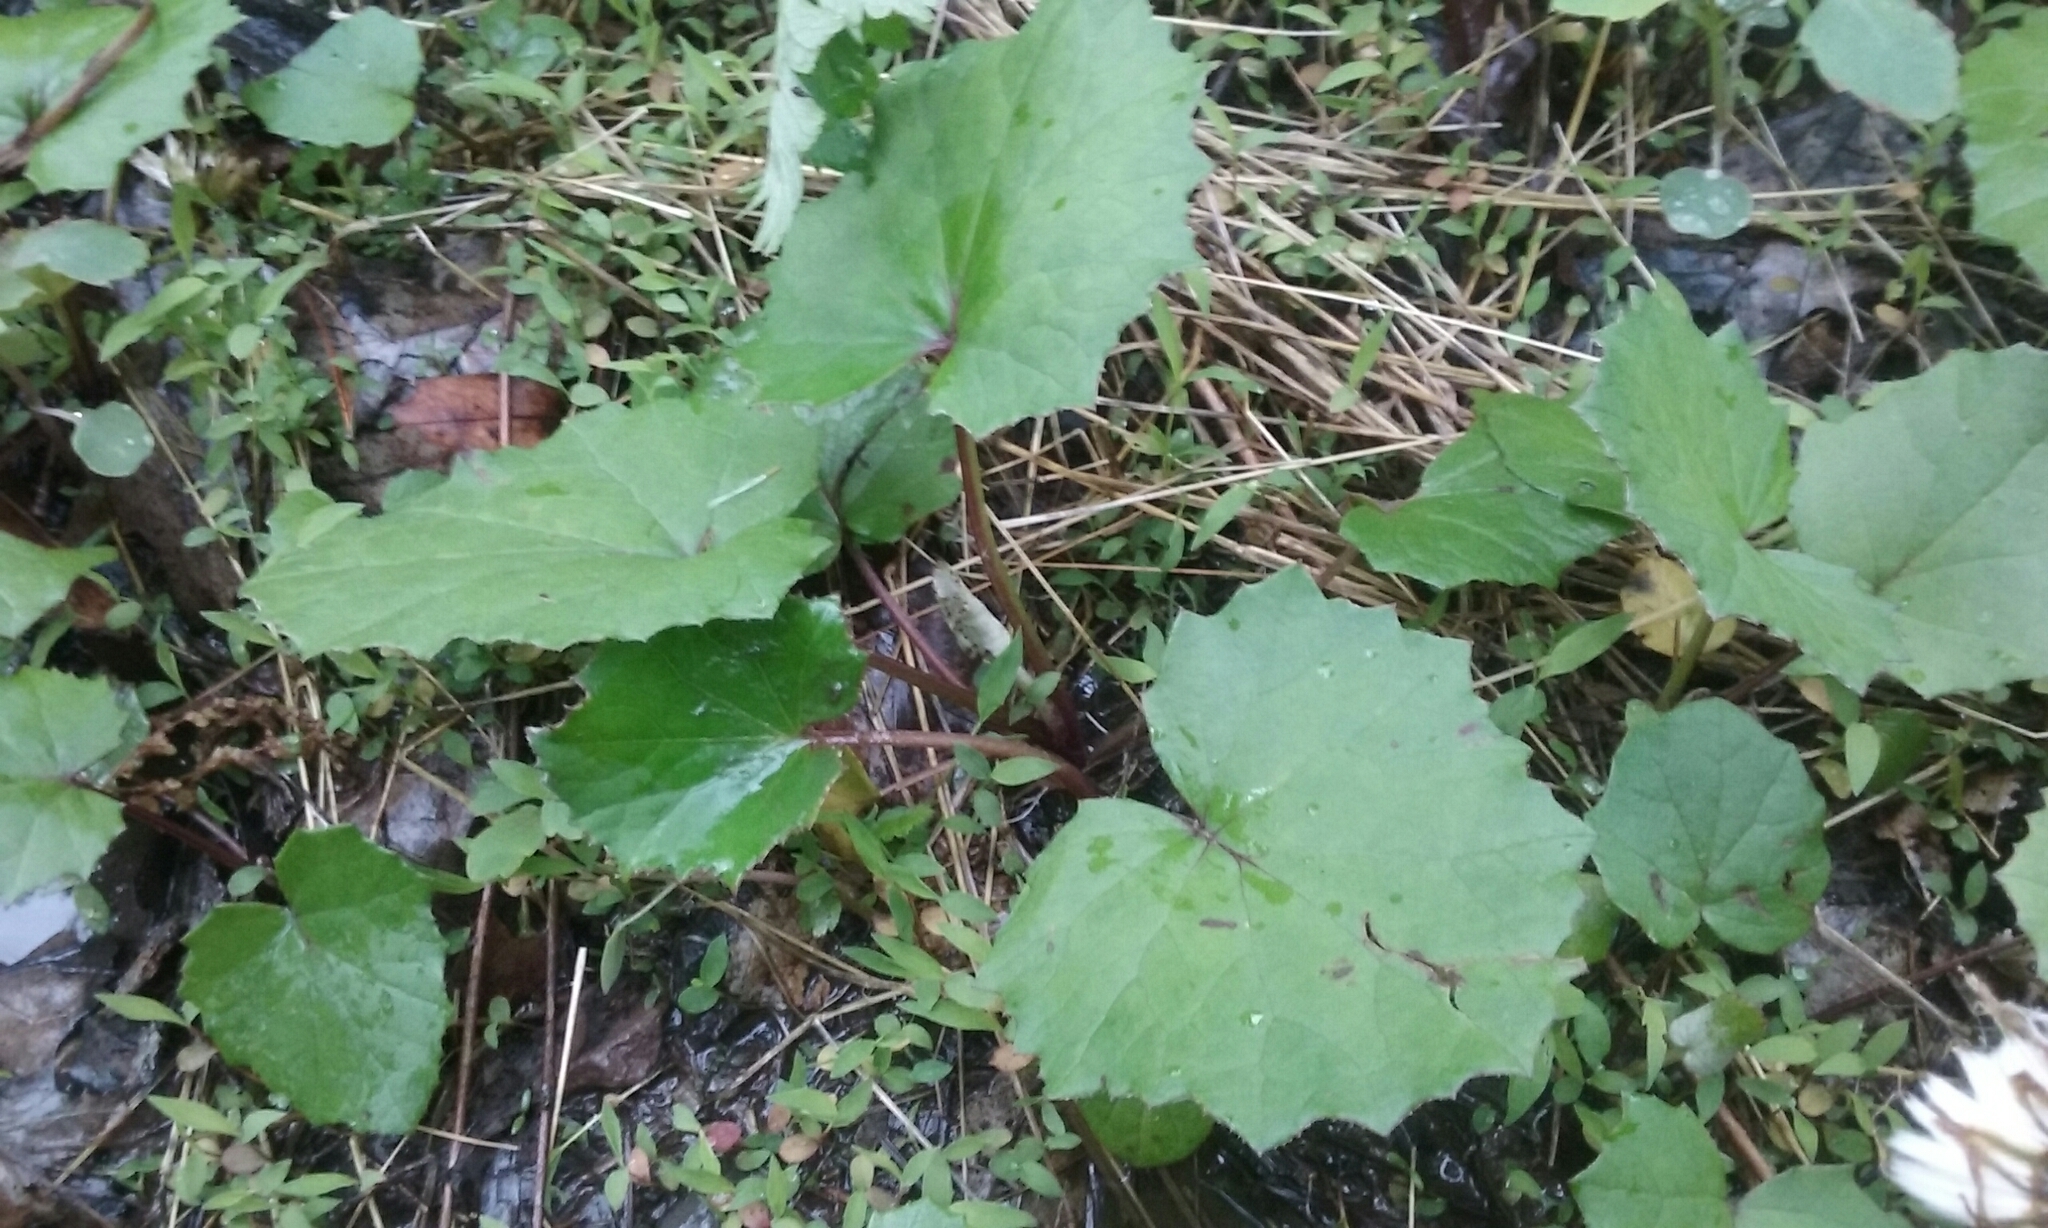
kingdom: Plantae
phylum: Tracheophyta
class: Magnoliopsida
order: Asterales
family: Asteraceae
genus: Tussilago
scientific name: Tussilago farfara
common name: Coltsfoot
